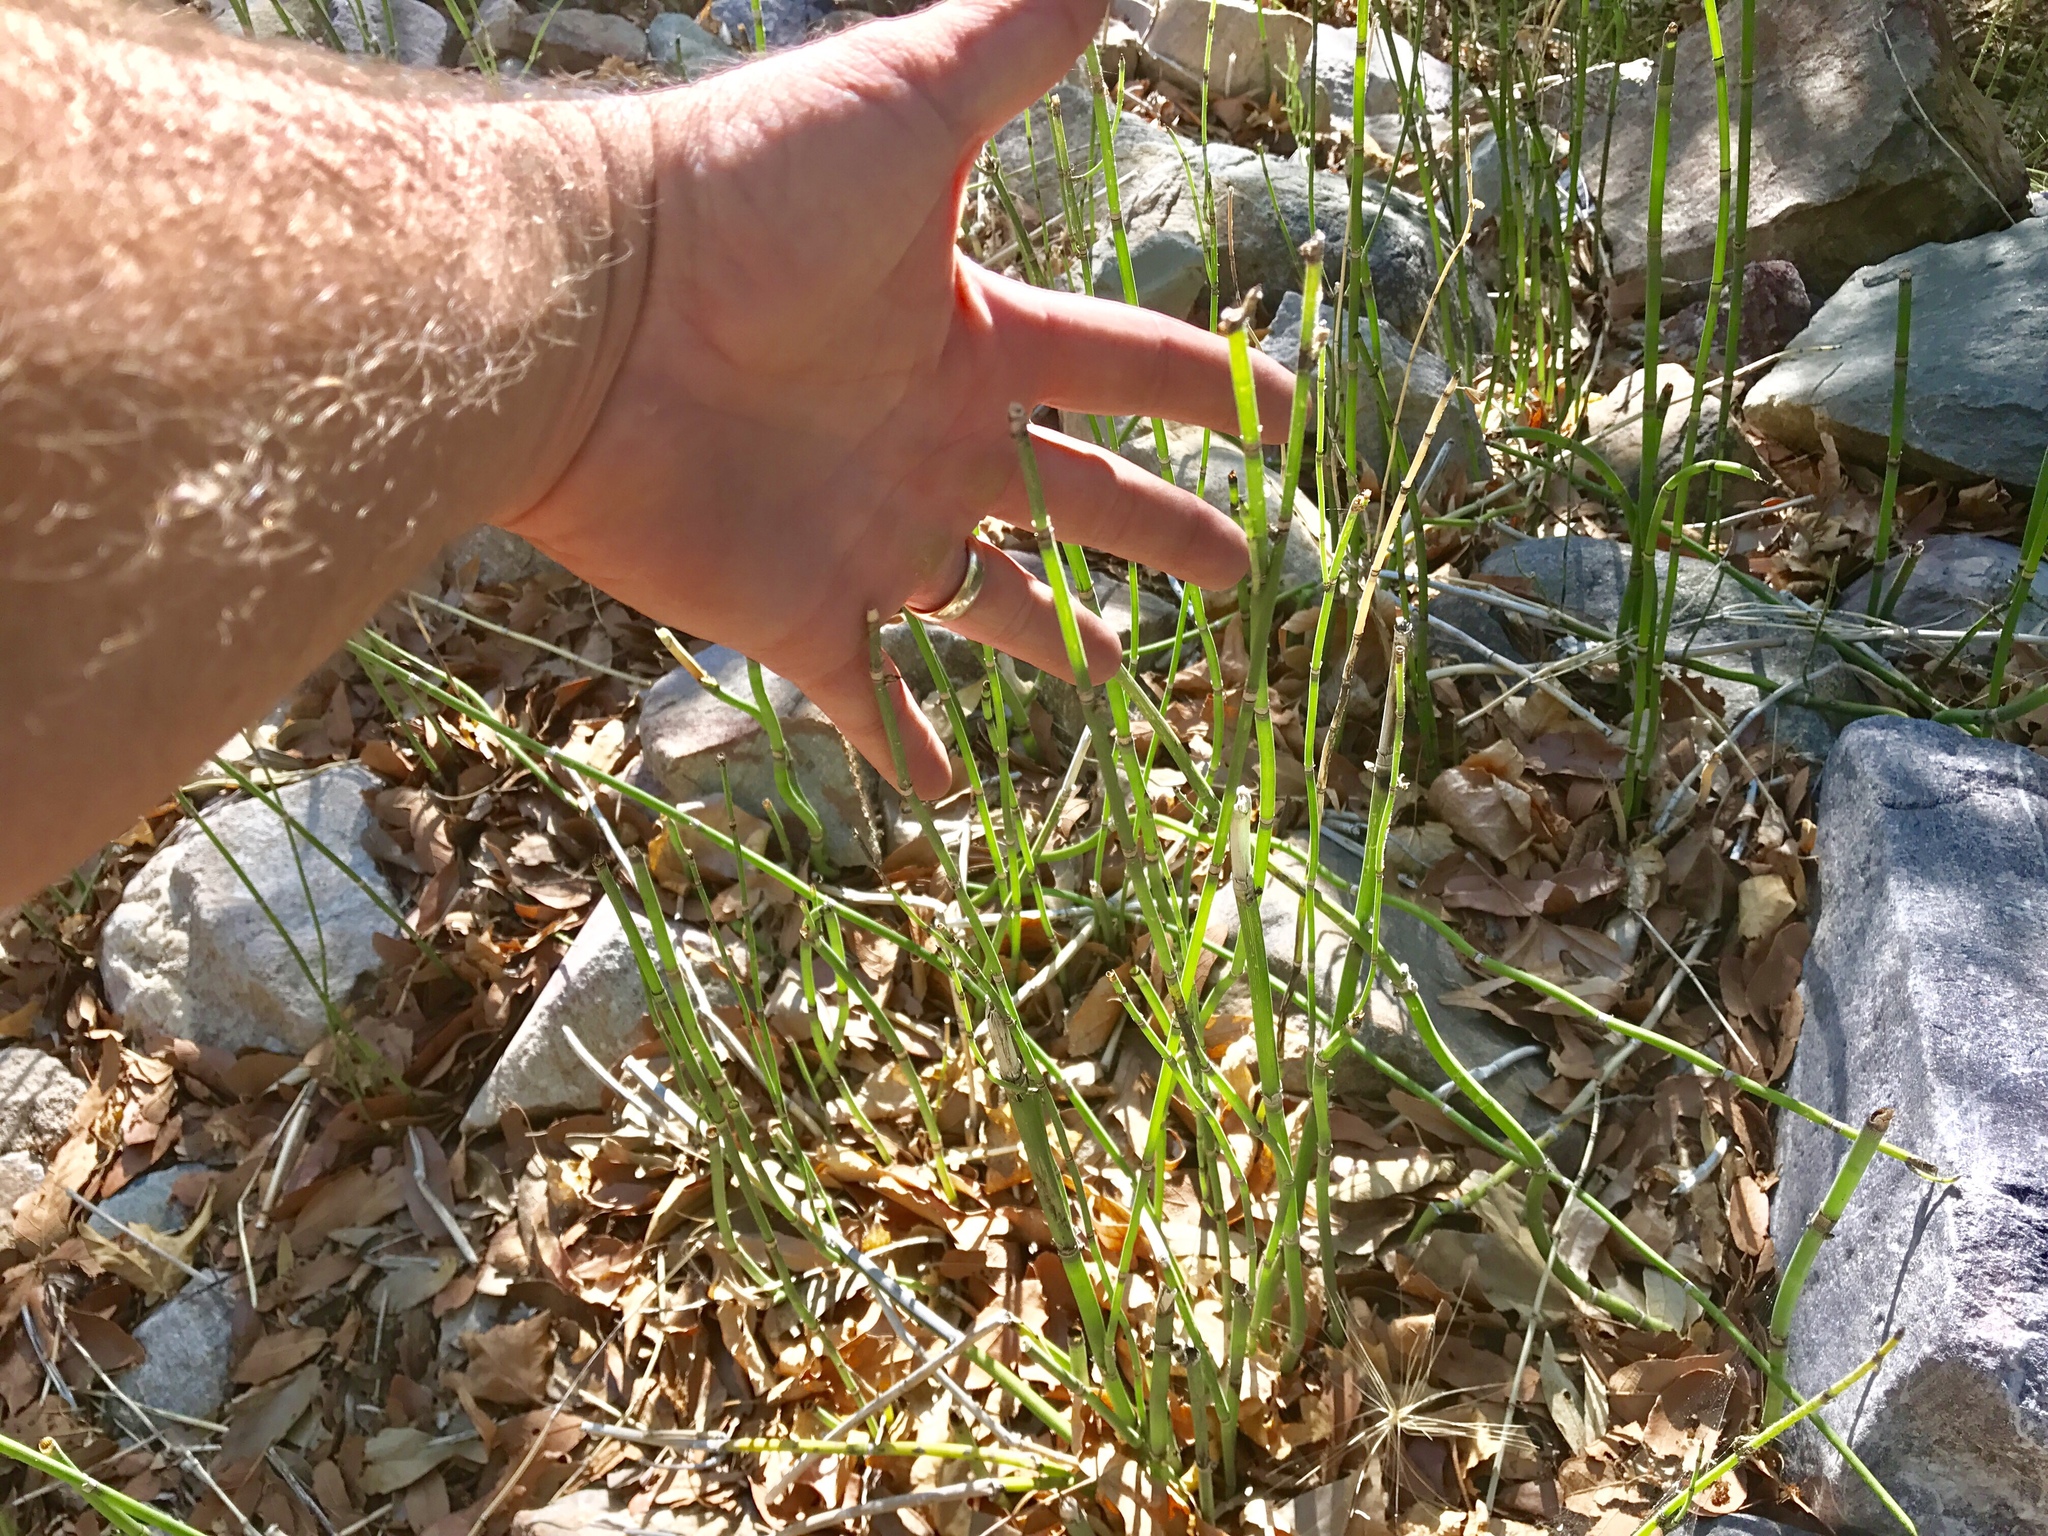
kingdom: Plantae
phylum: Tracheophyta
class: Polypodiopsida
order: Equisetales
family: Equisetaceae
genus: Equisetum
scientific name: Equisetum hyemale
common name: Rough horsetail
